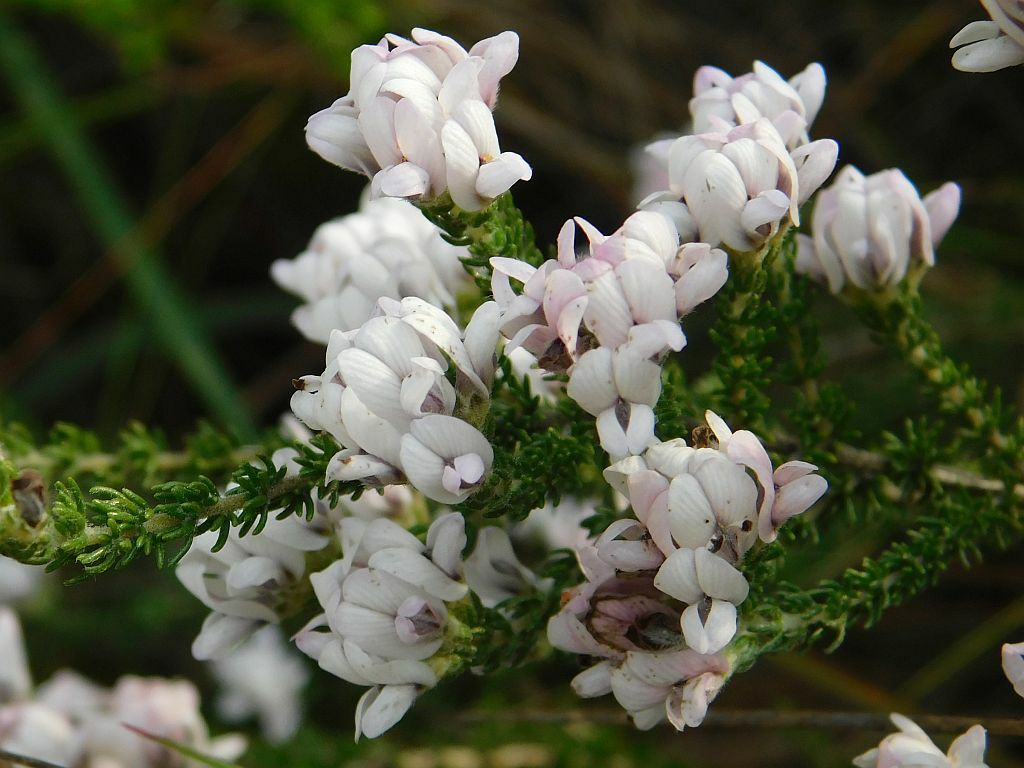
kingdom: Plantae
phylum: Tracheophyta
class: Magnoliopsida
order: Fabales
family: Fabaceae
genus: Aspalathus
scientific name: Aspalathus nigra
